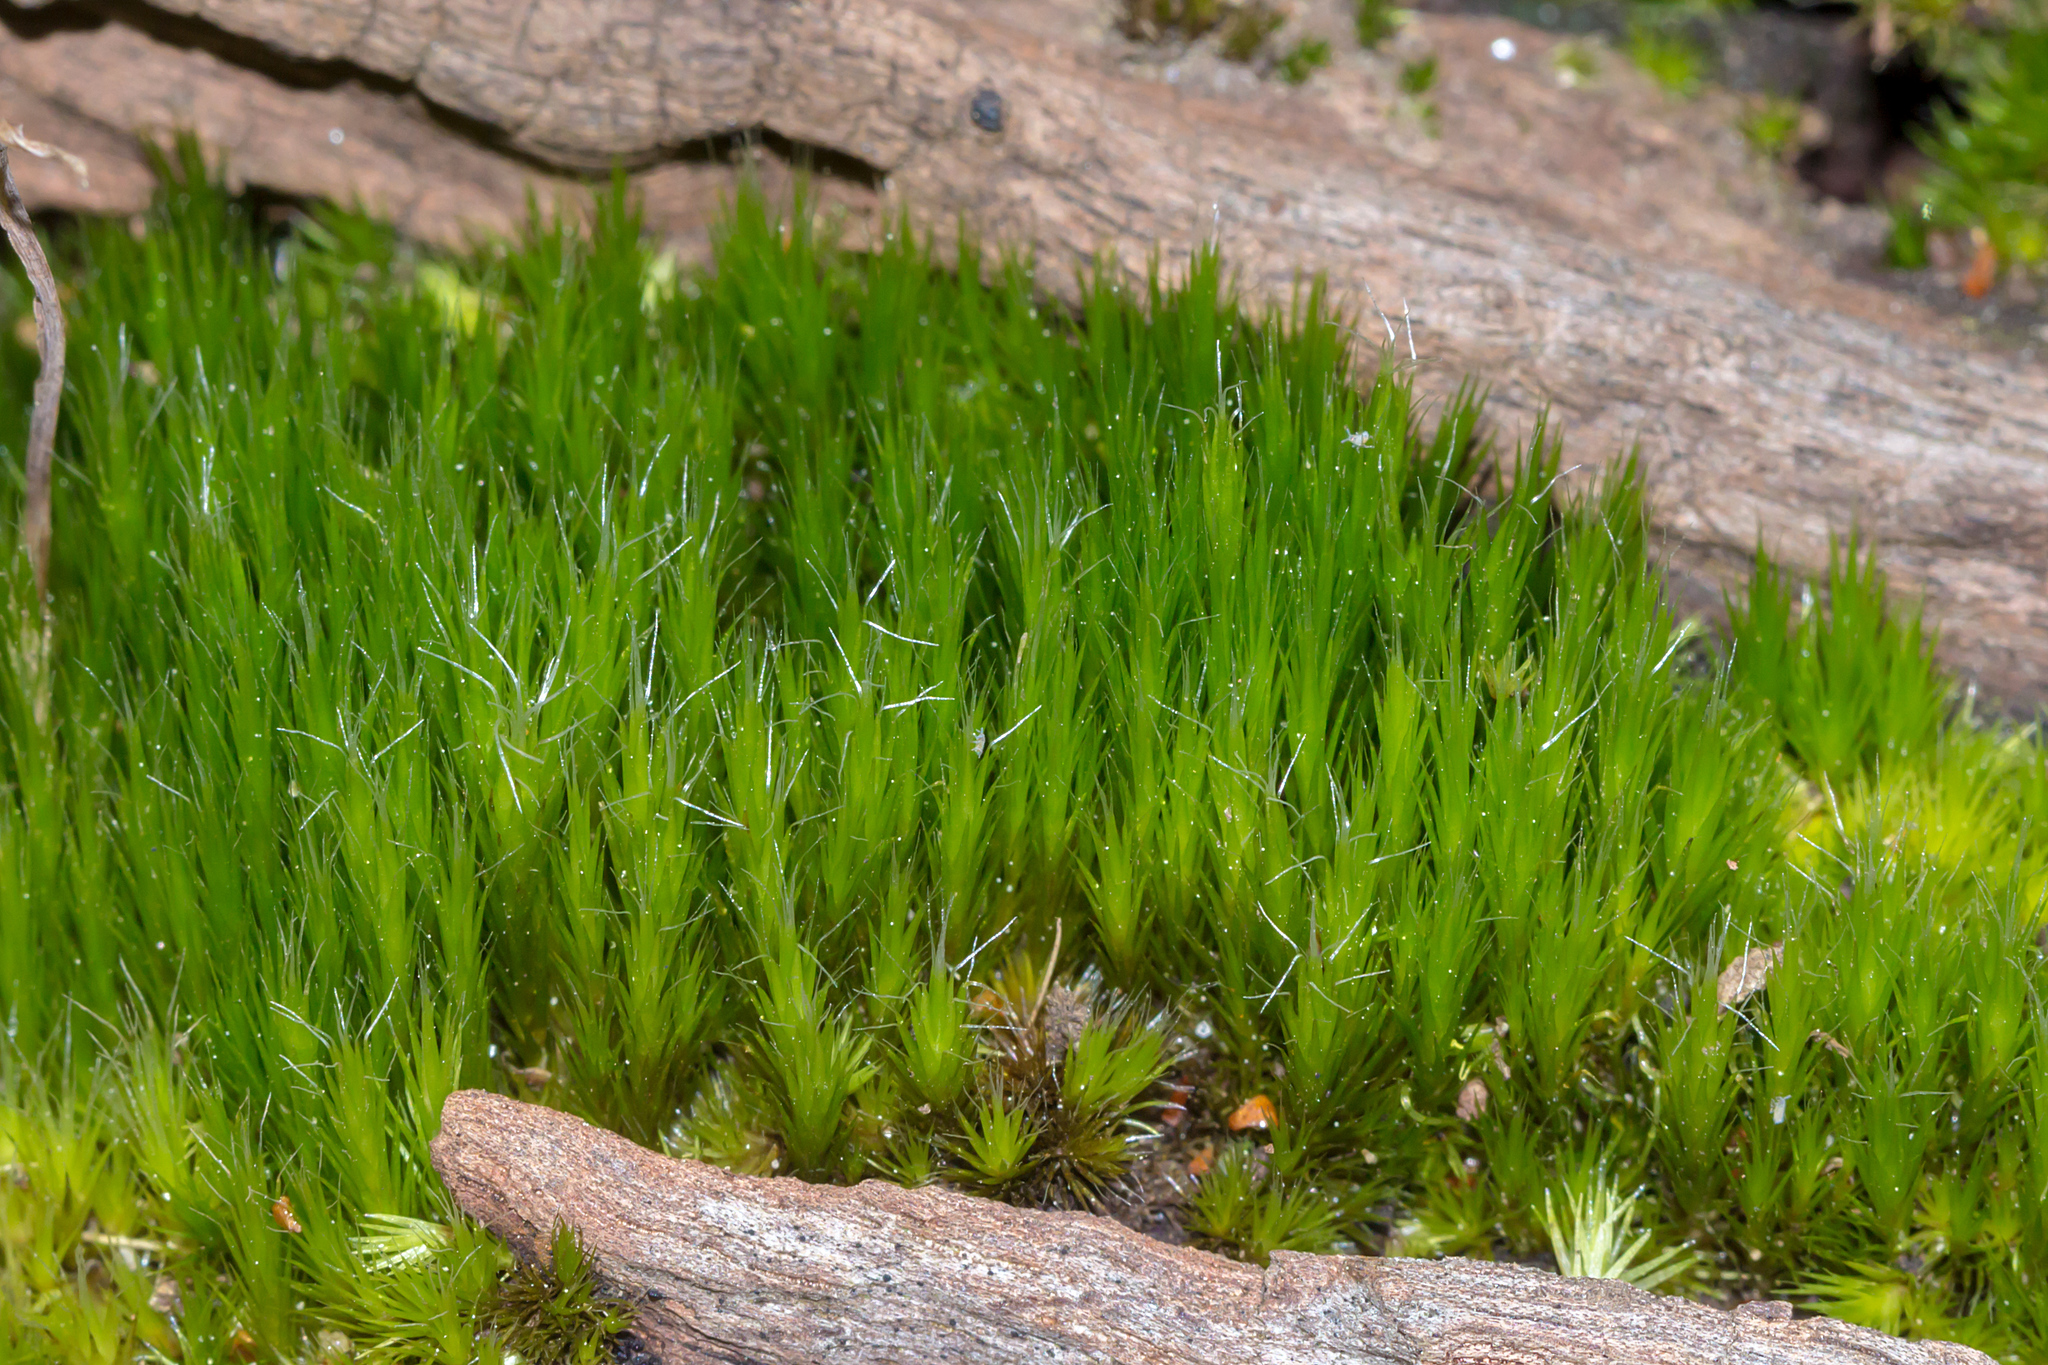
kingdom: Plantae
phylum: Bryophyta
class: Bryopsida
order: Dicranales
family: Leucobryaceae
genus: Campylopus
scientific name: Campylopus introflexus
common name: Heath star moss
